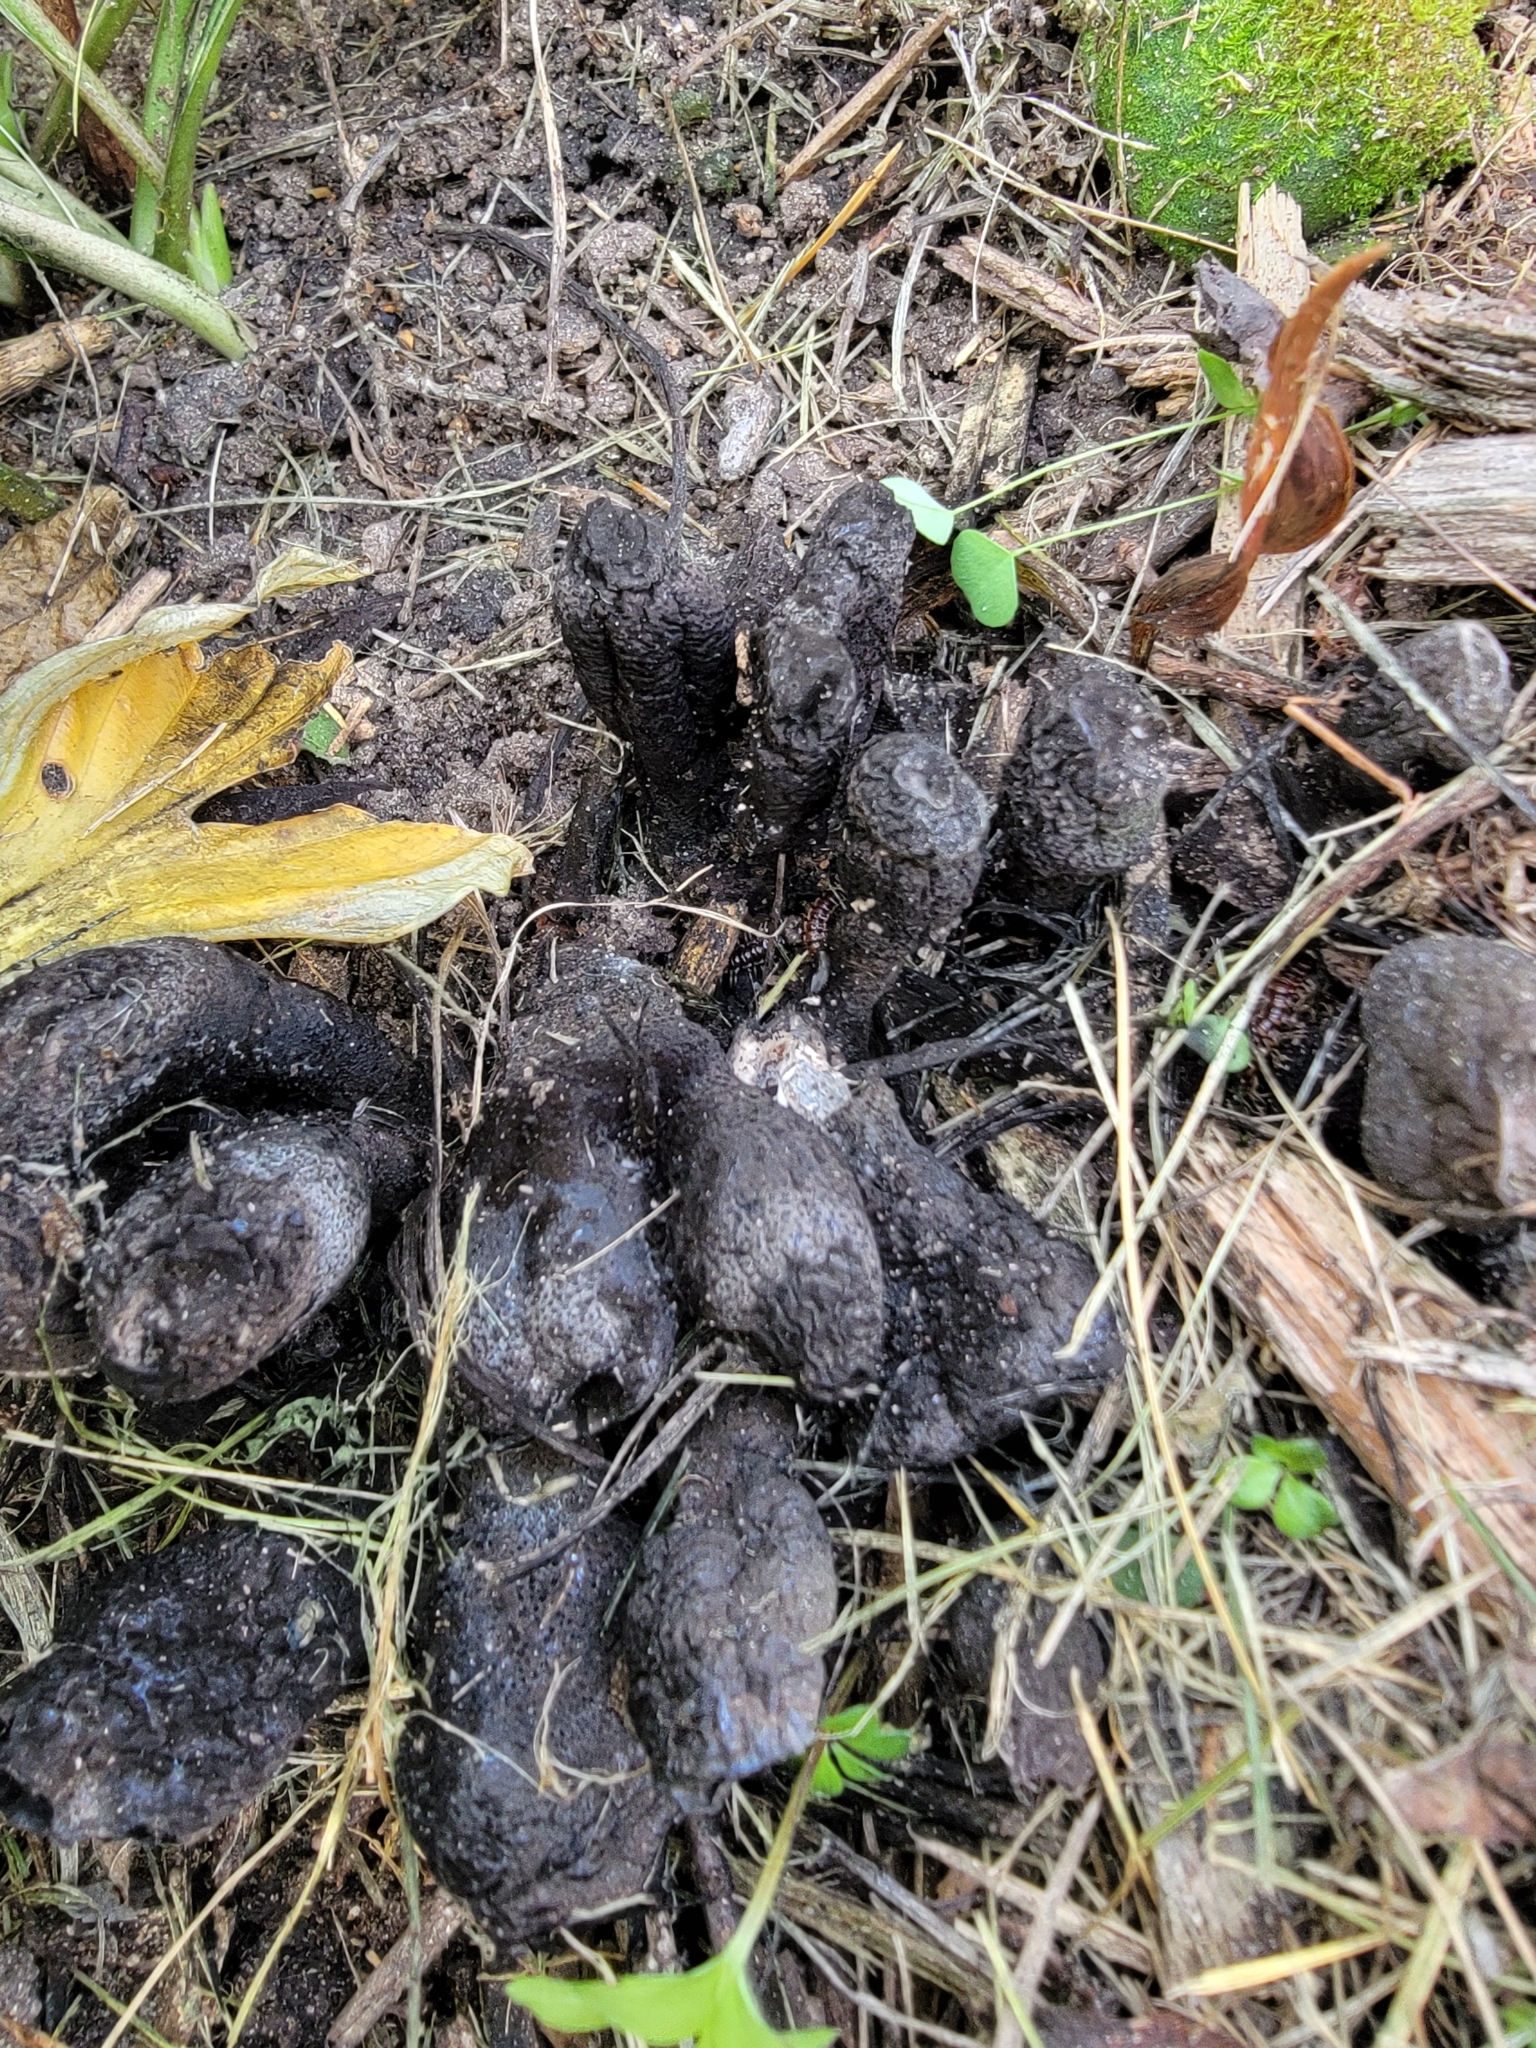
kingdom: Fungi
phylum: Ascomycota
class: Sordariomycetes
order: Xylariales
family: Xylariaceae
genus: Xylaria
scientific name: Xylaria polymorpha
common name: Dead man's fingers
